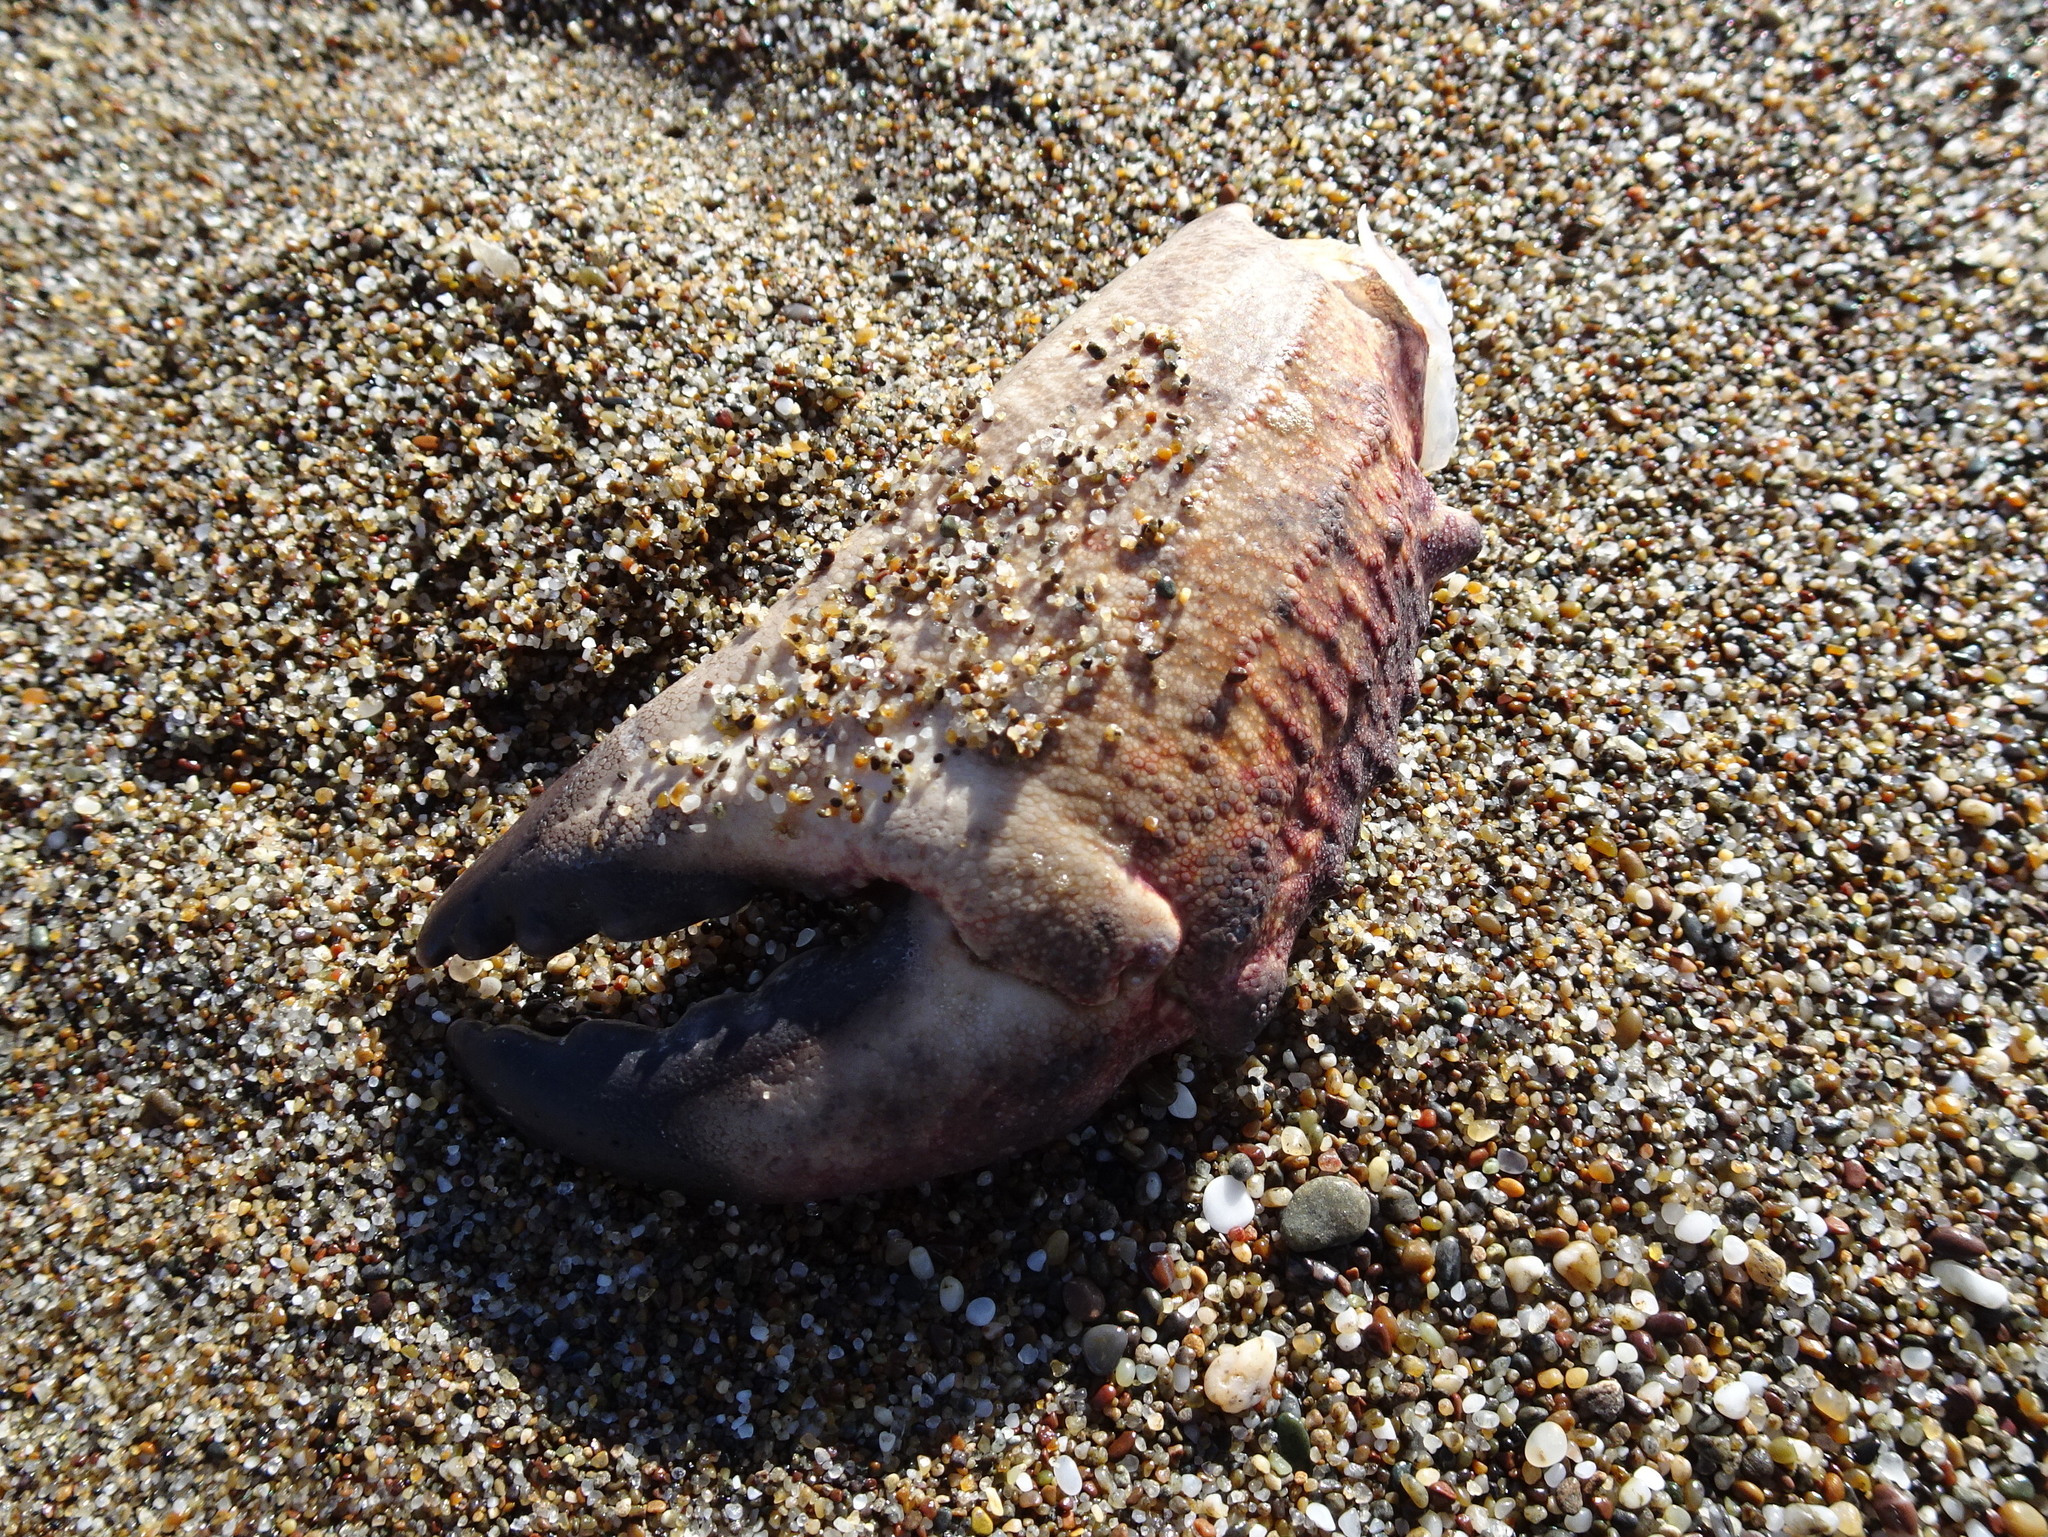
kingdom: Animalia
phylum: Arthropoda
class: Malacostraca
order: Decapoda
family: Cancridae
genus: Cancer
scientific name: Cancer productus
